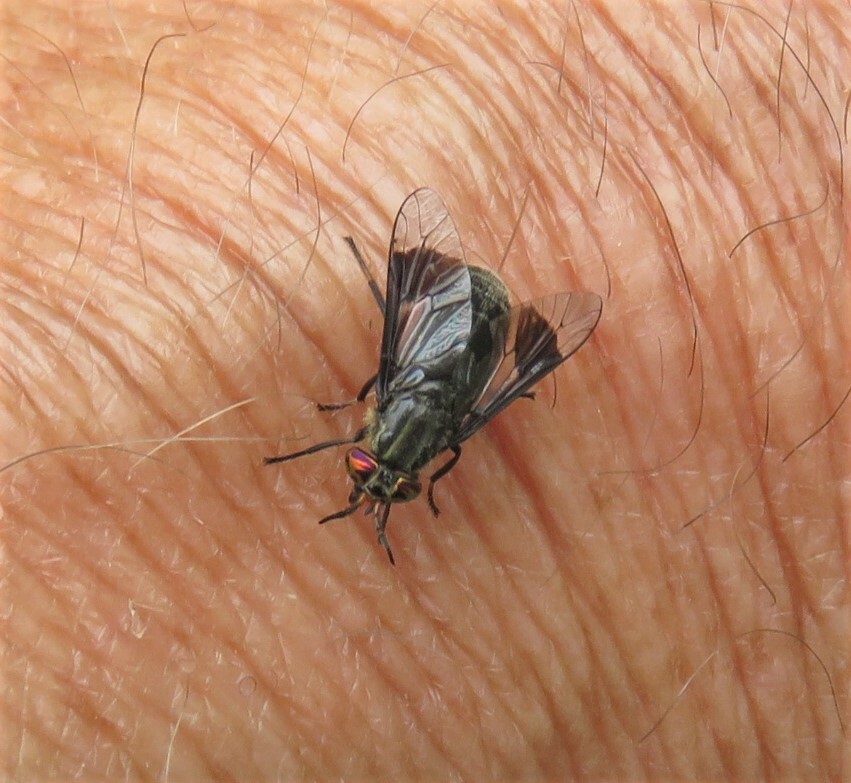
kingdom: Animalia
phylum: Arthropoda
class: Insecta
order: Diptera
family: Tabanidae
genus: Chrysops
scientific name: Chrysops niger
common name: Black deer fly
